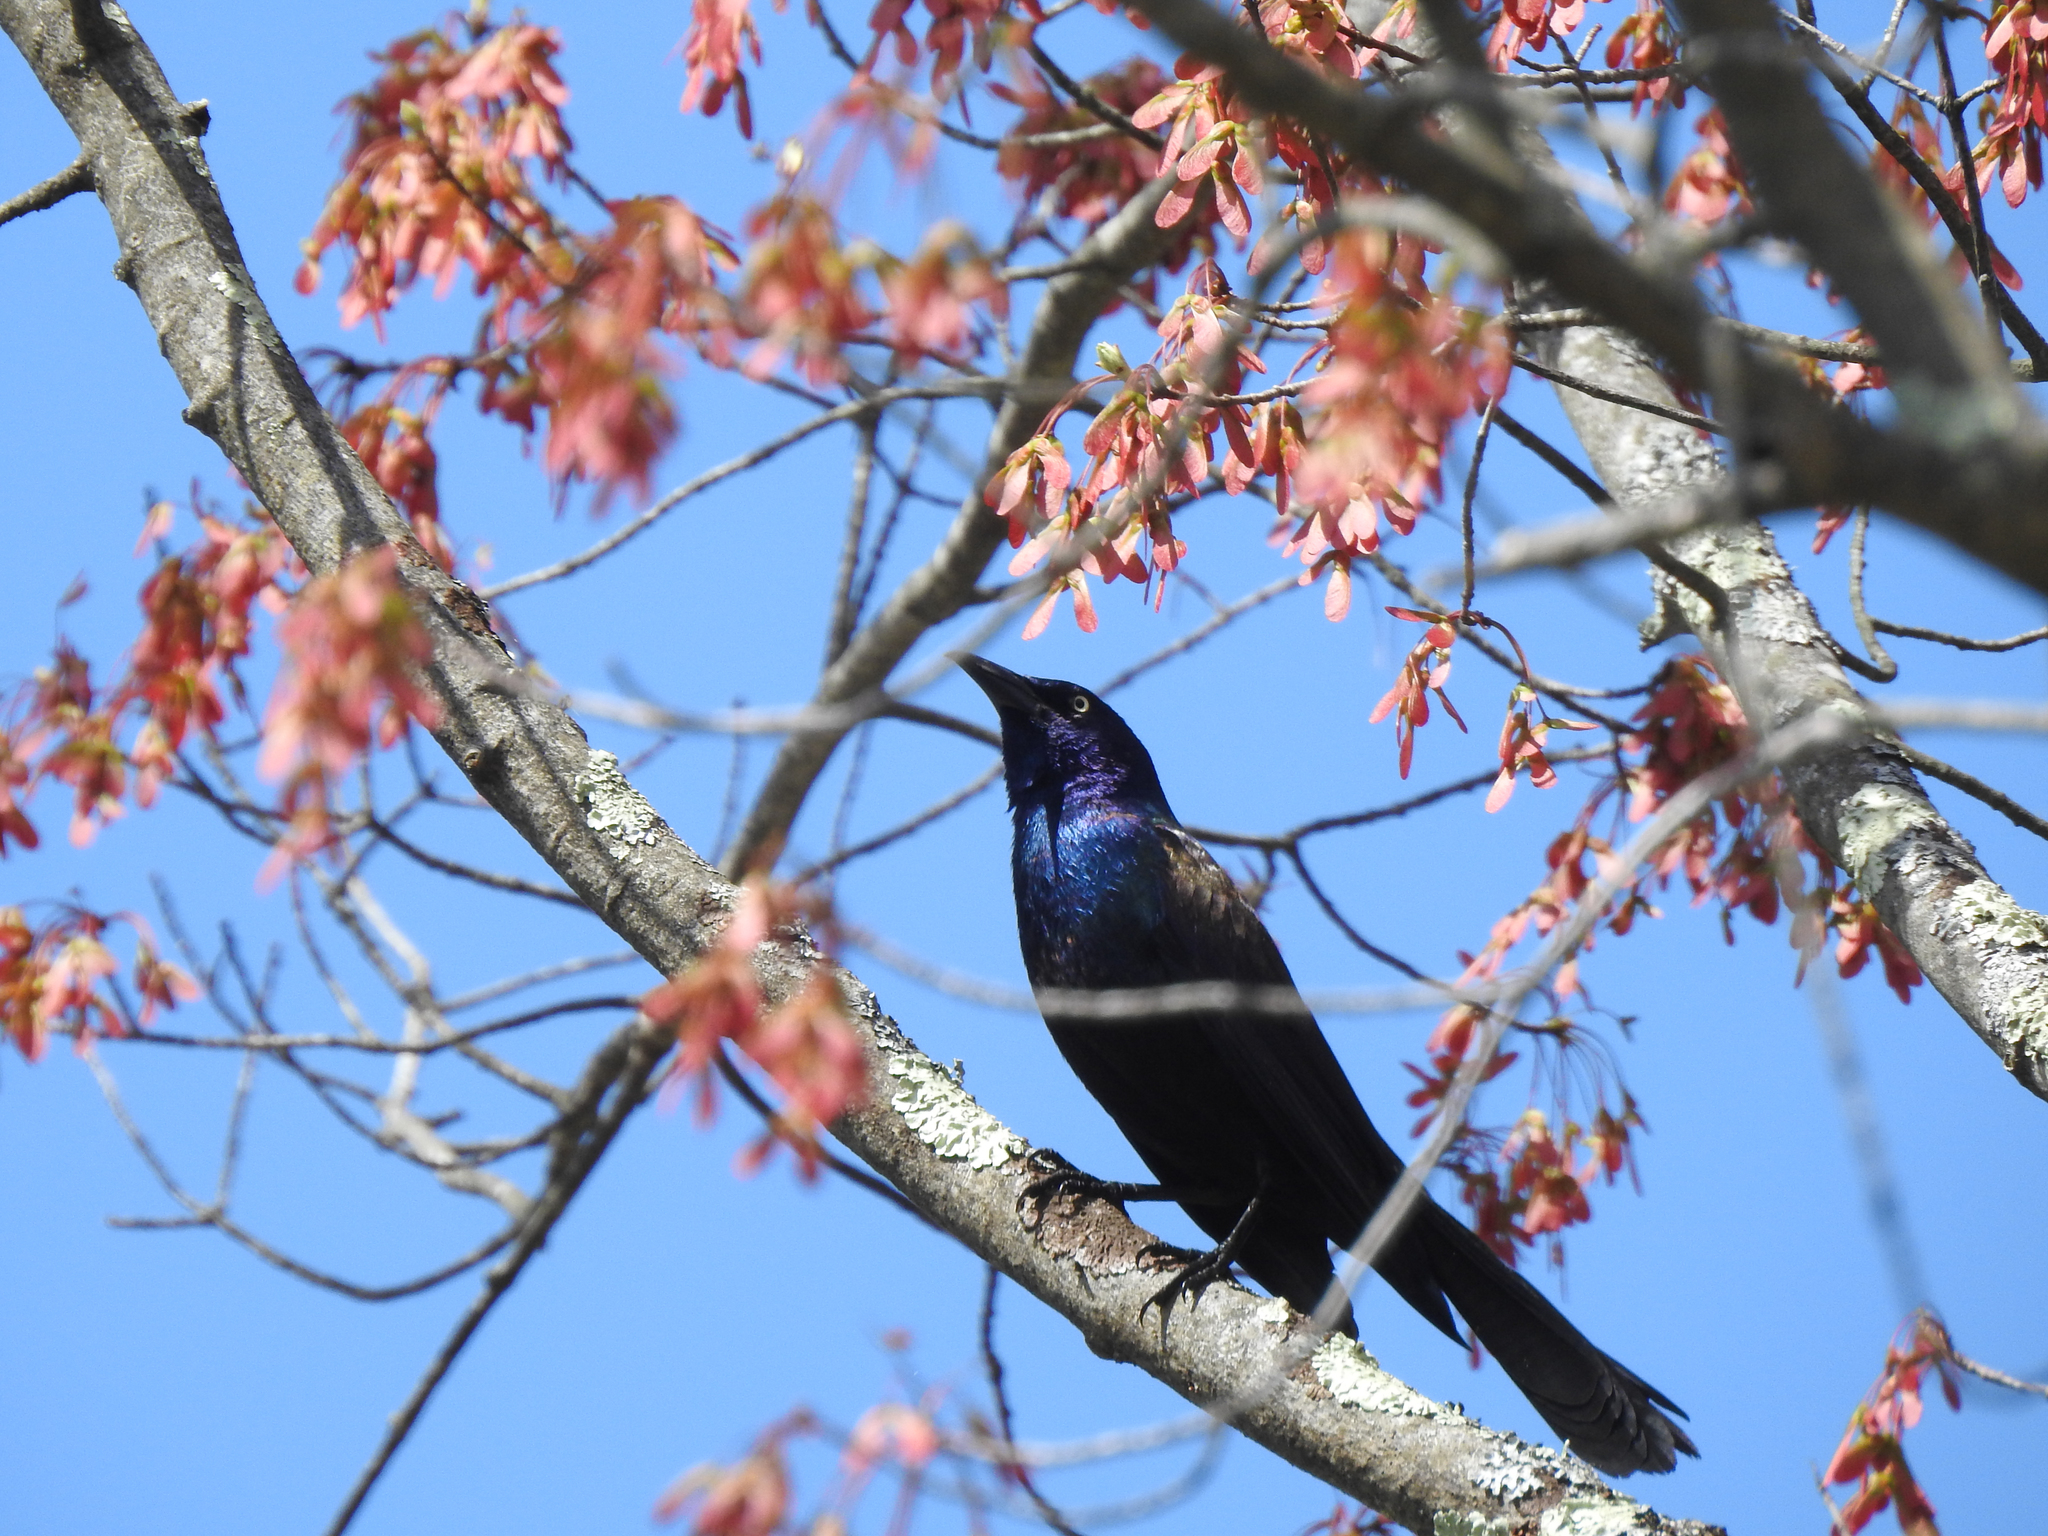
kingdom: Animalia
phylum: Chordata
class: Aves
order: Passeriformes
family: Icteridae
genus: Quiscalus
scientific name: Quiscalus quiscula
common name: Common grackle
